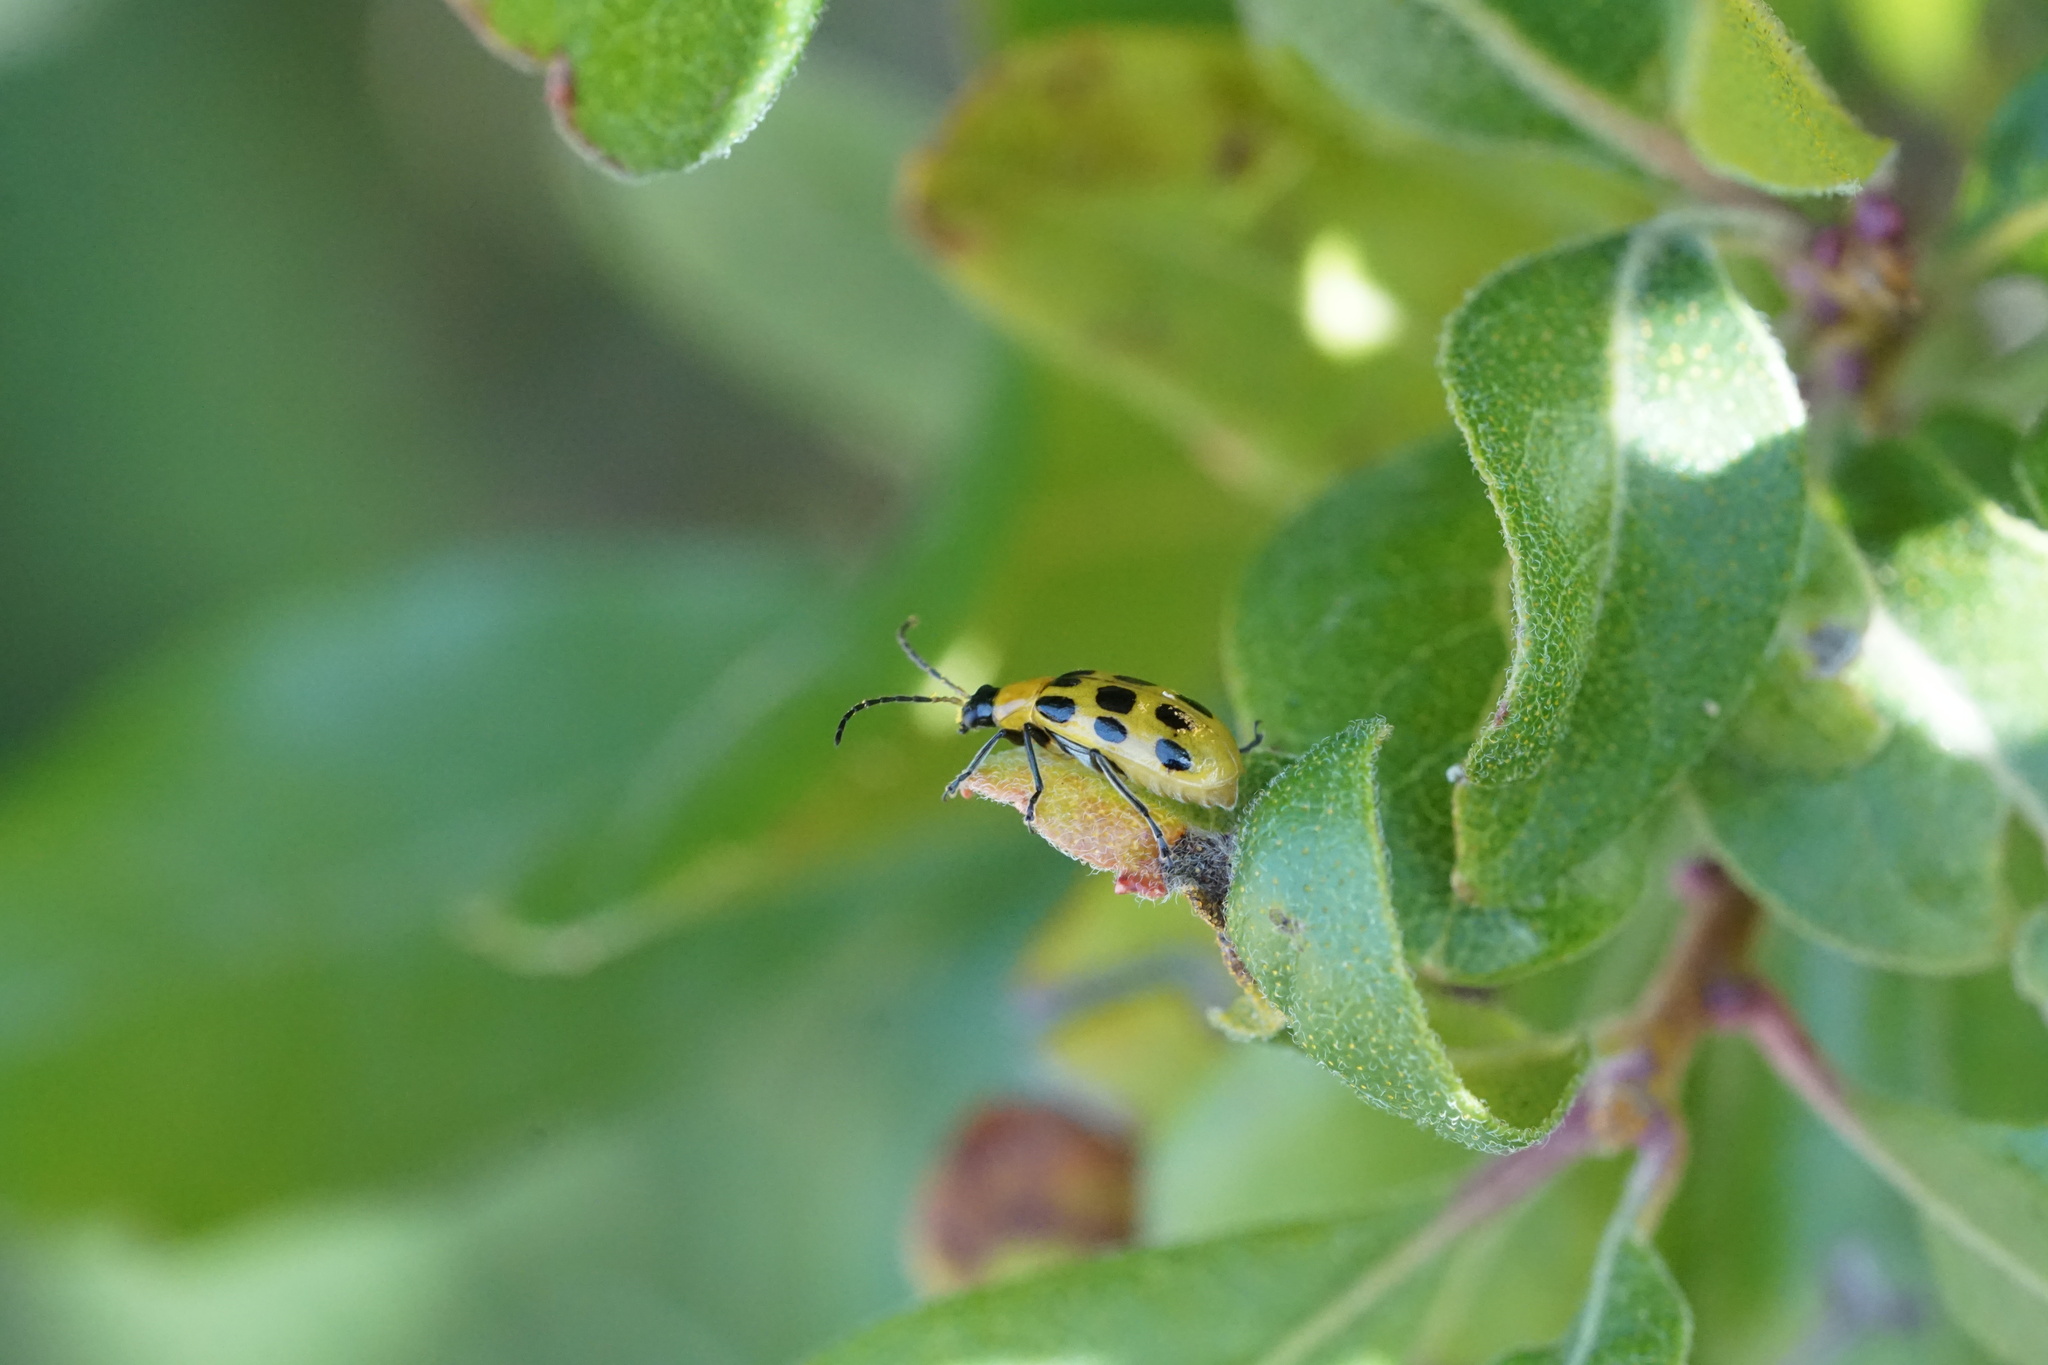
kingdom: Animalia
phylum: Arthropoda
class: Insecta
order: Coleoptera
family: Chrysomelidae
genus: Diabrotica
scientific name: Diabrotica undecimpunctata
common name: Spotted cucumber beetle
